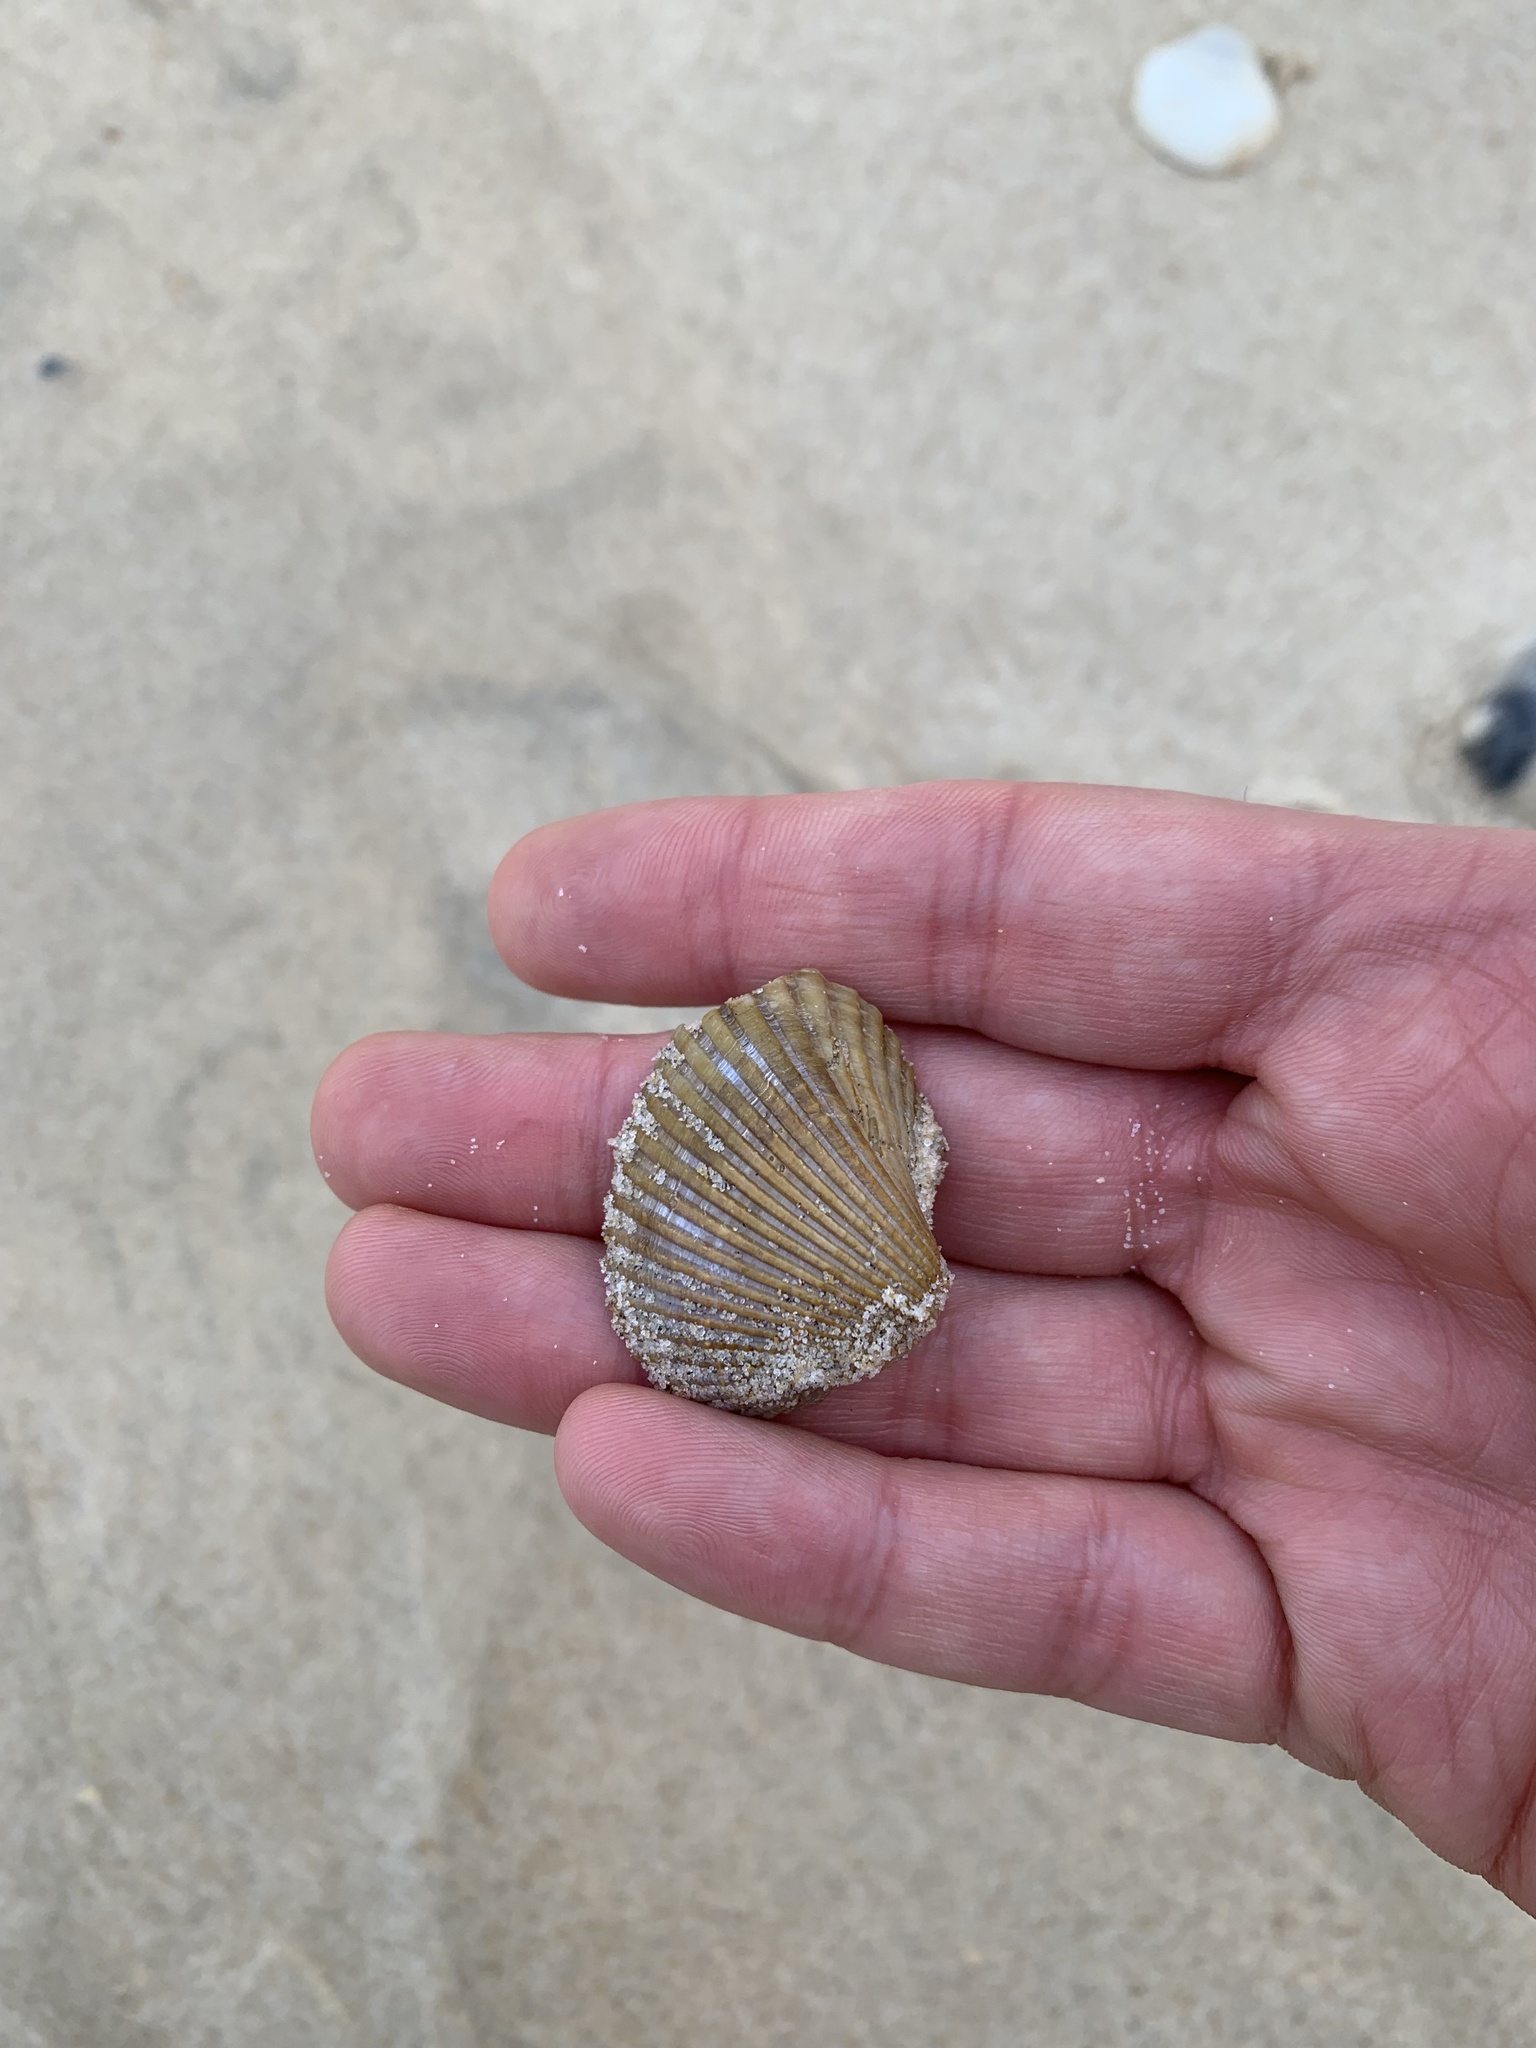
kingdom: Animalia
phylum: Mollusca
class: Bivalvia
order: Arcida
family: Arcidae
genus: Anadara
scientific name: Anadara trapezia
